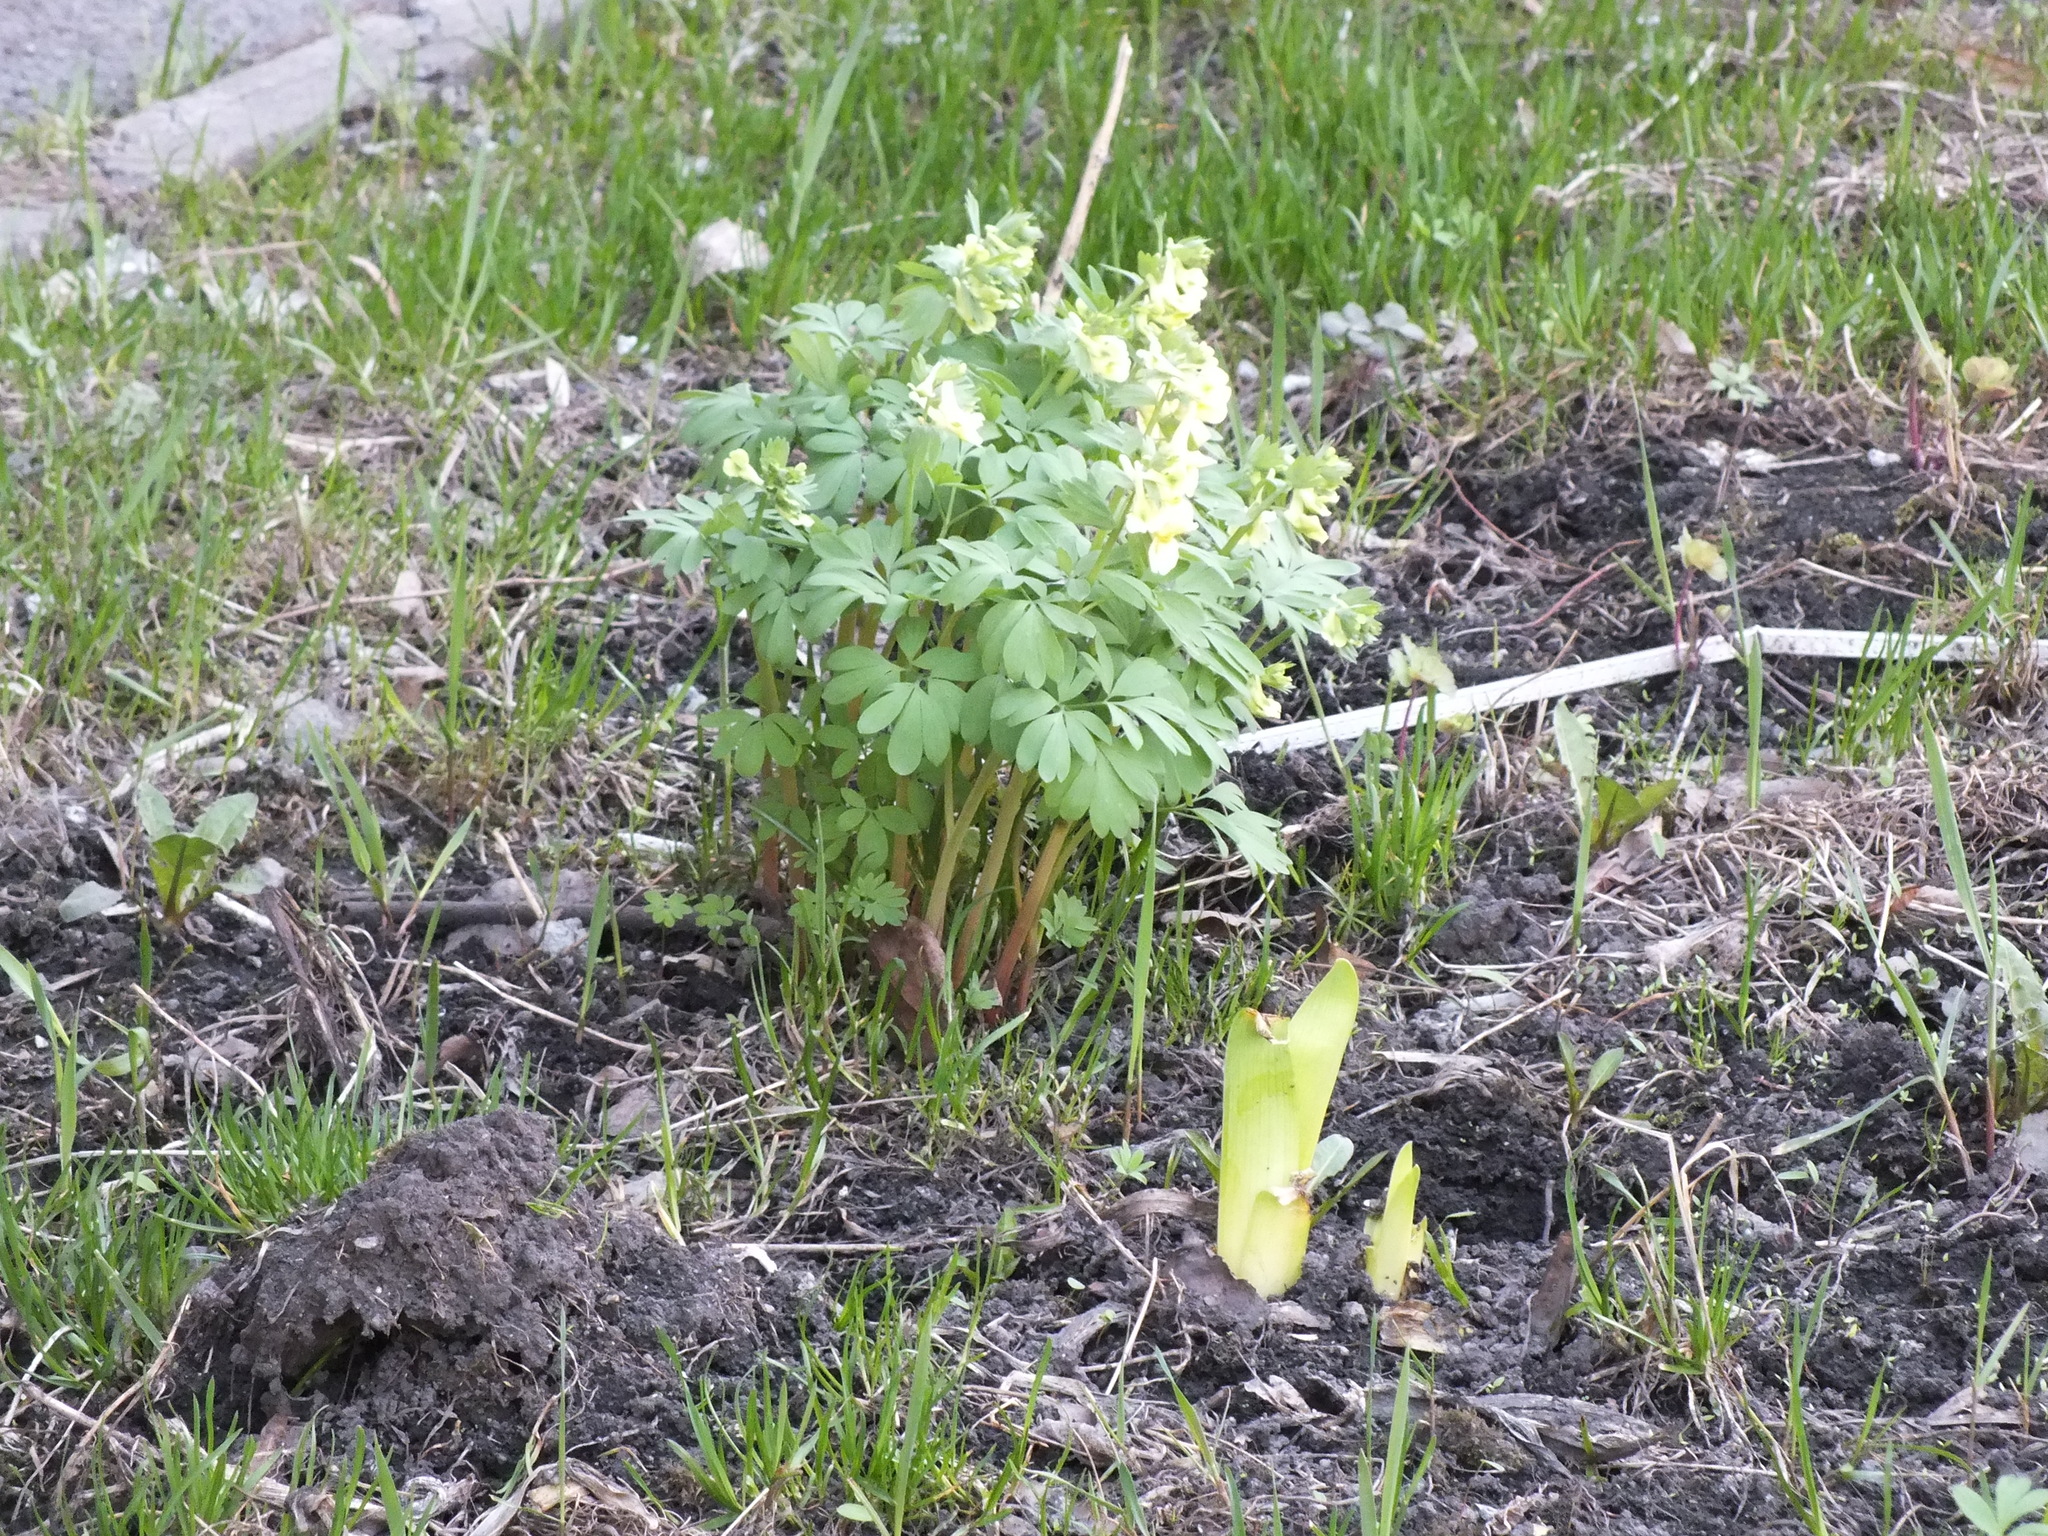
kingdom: Plantae
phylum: Tracheophyta
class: Magnoliopsida
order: Ranunculales
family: Papaveraceae
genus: Corydalis
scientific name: Corydalis bracteata
